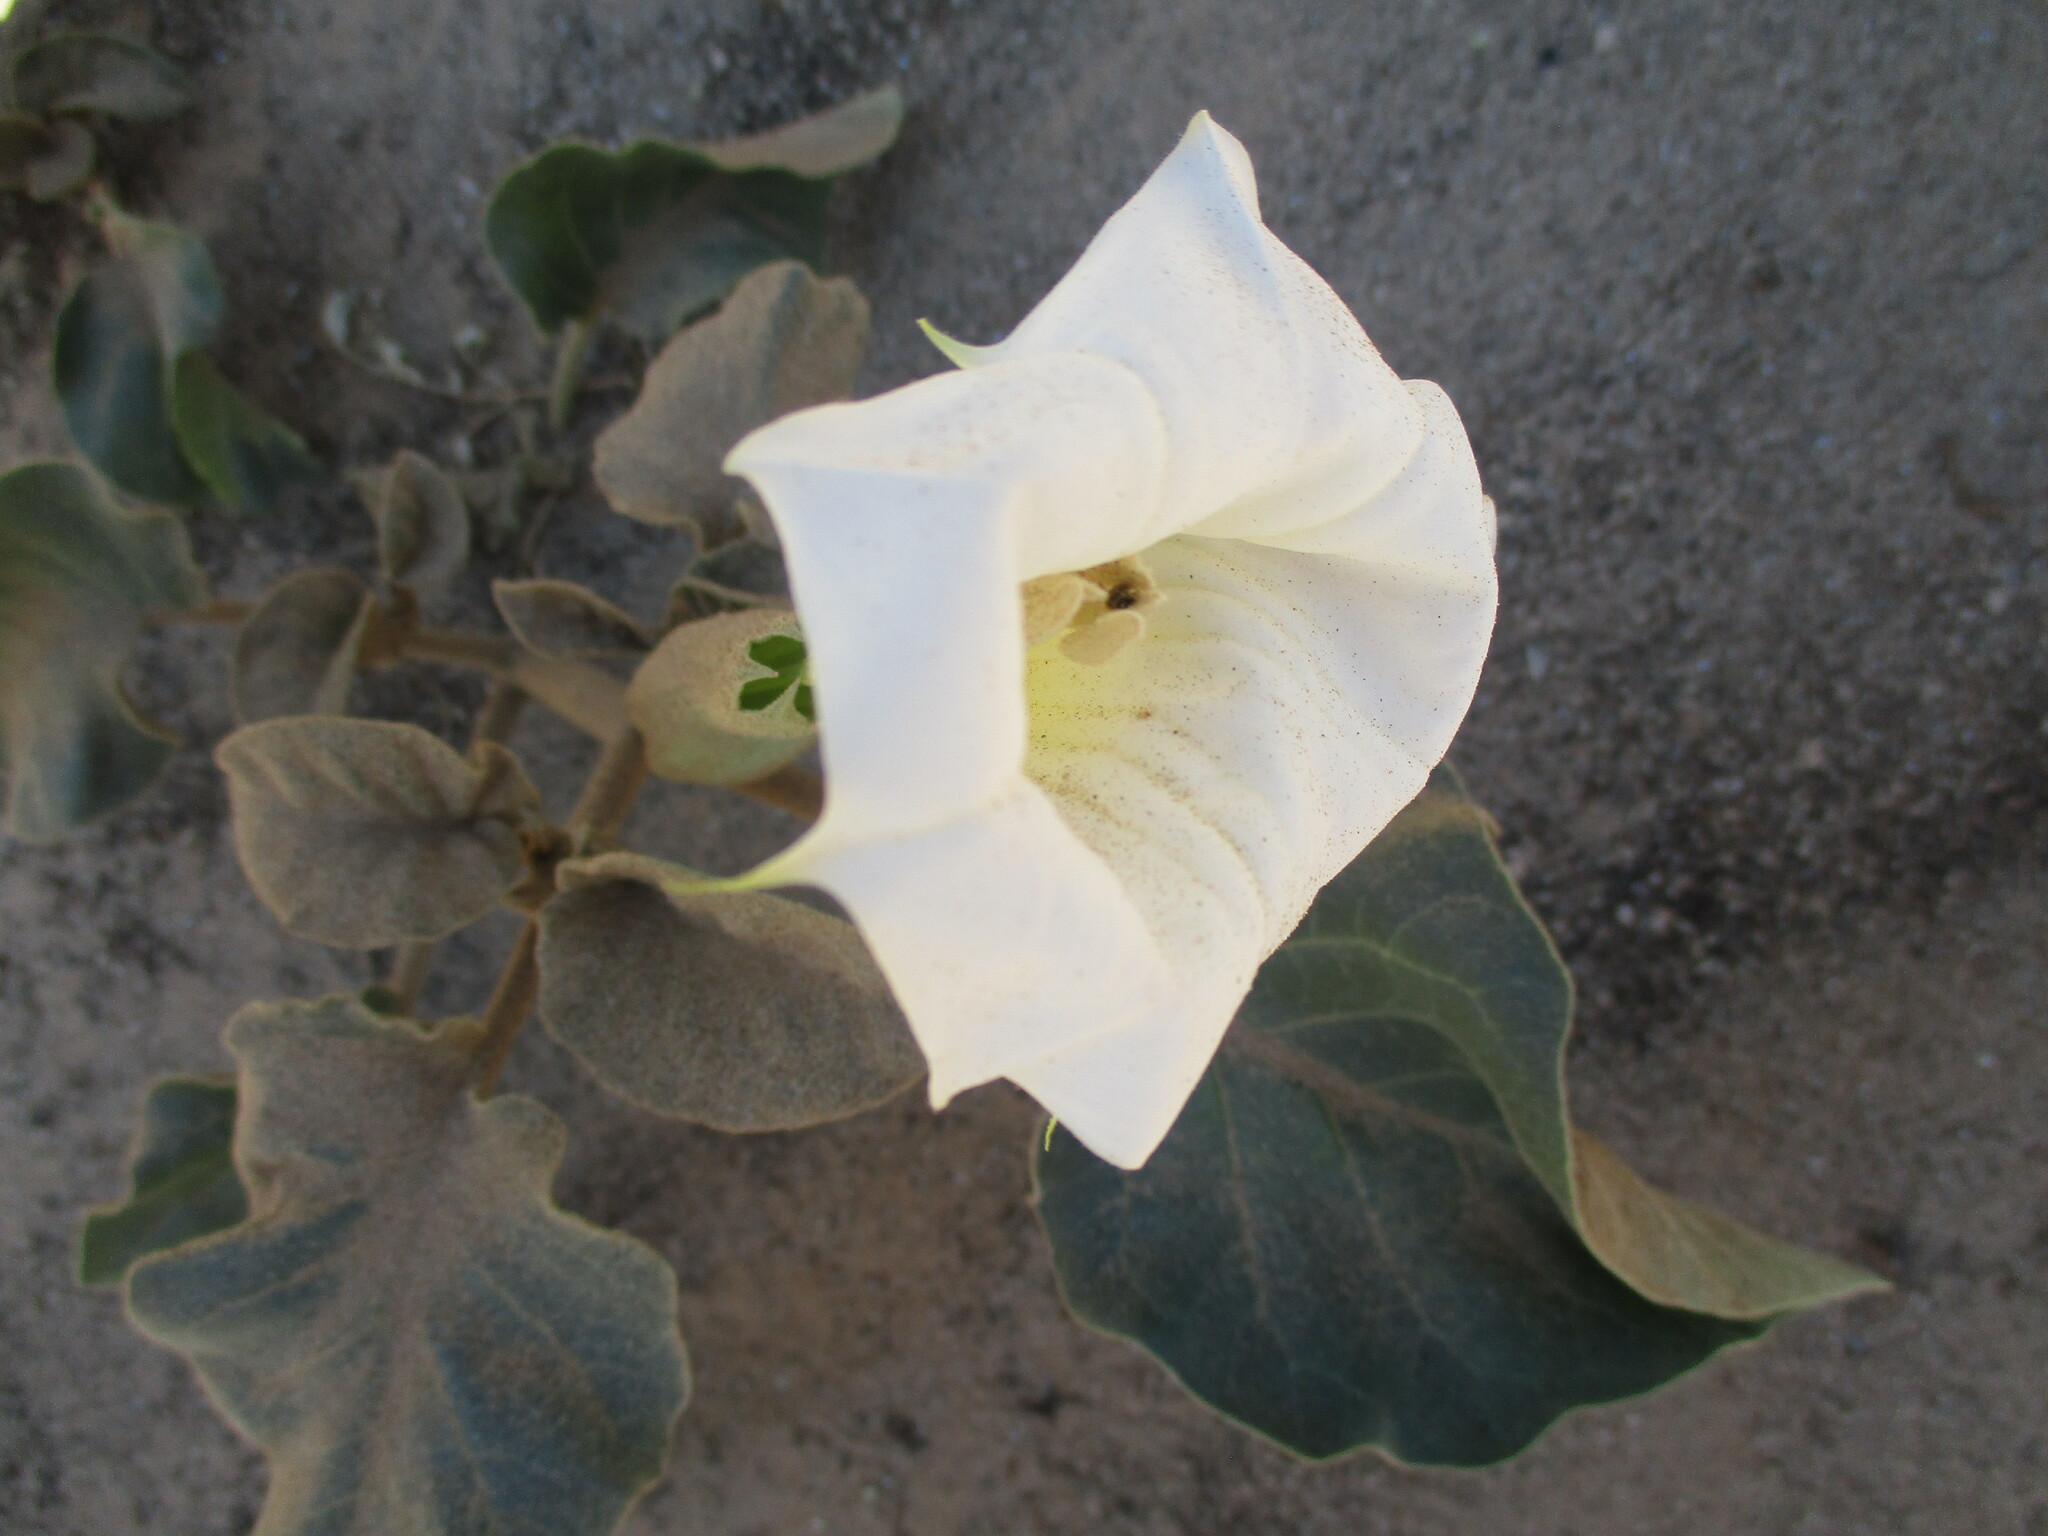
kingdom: Plantae
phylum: Tracheophyta
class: Magnoliopsida
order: Solanales
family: Solanaceae
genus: Datura
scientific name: Datura innoxia
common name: Downy thorn-apple
